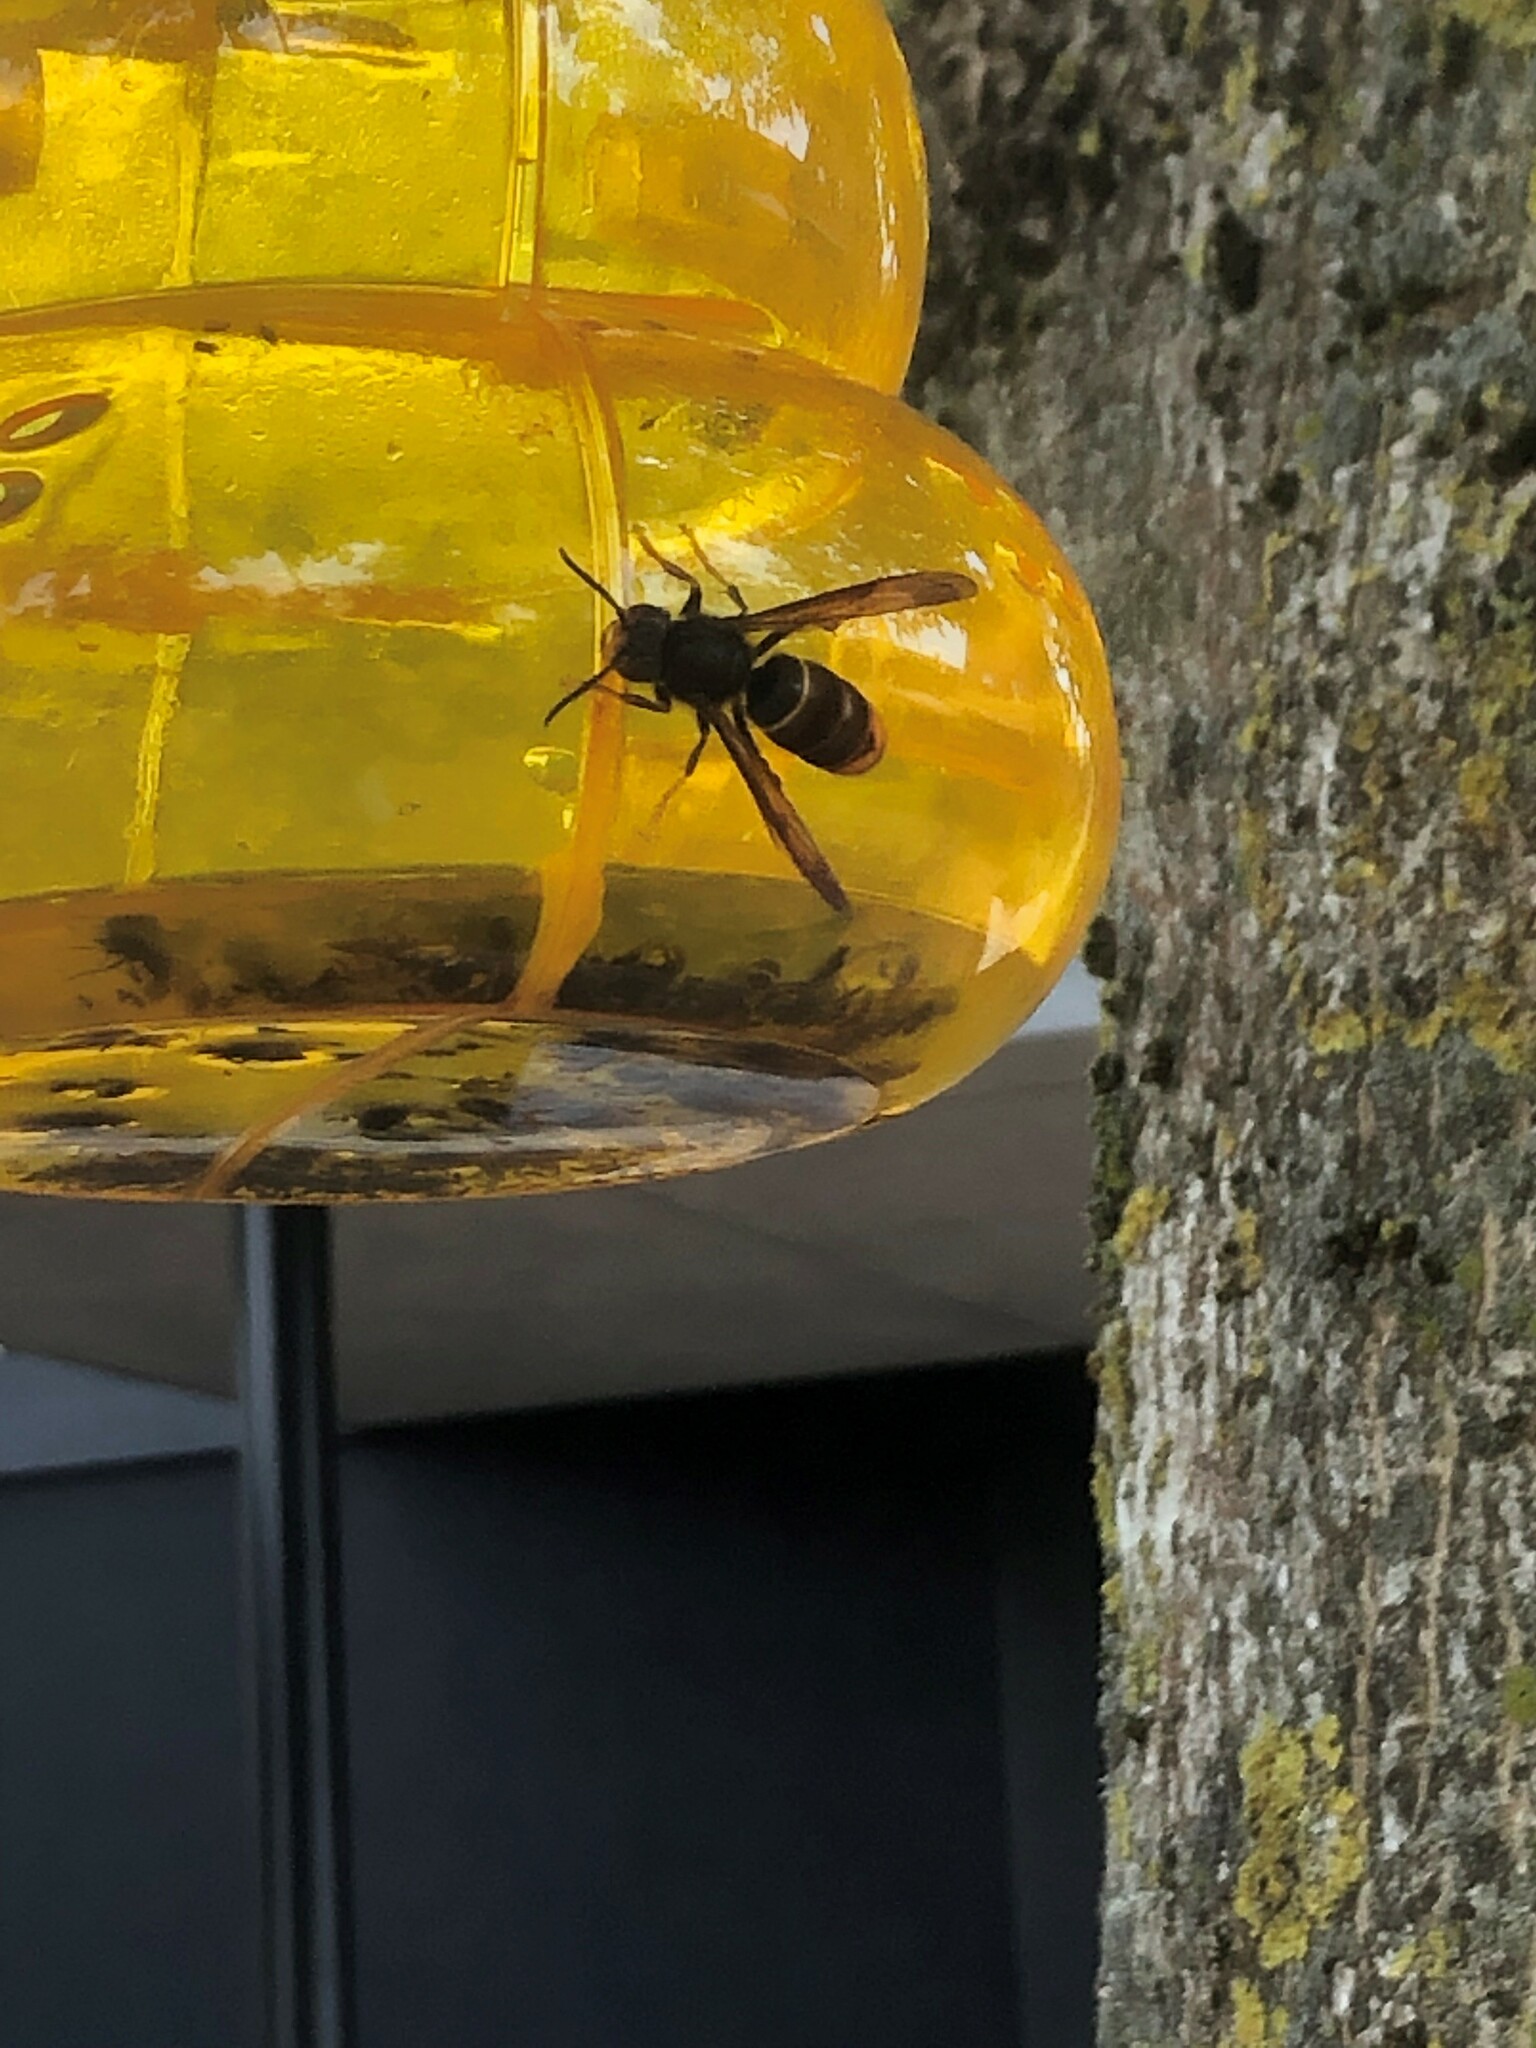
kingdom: Animalia
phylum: Arthropoda
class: Insecta
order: Hymenoptera
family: Vespidae
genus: Vespa
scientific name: Vespa velutina
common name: Asian hornet
